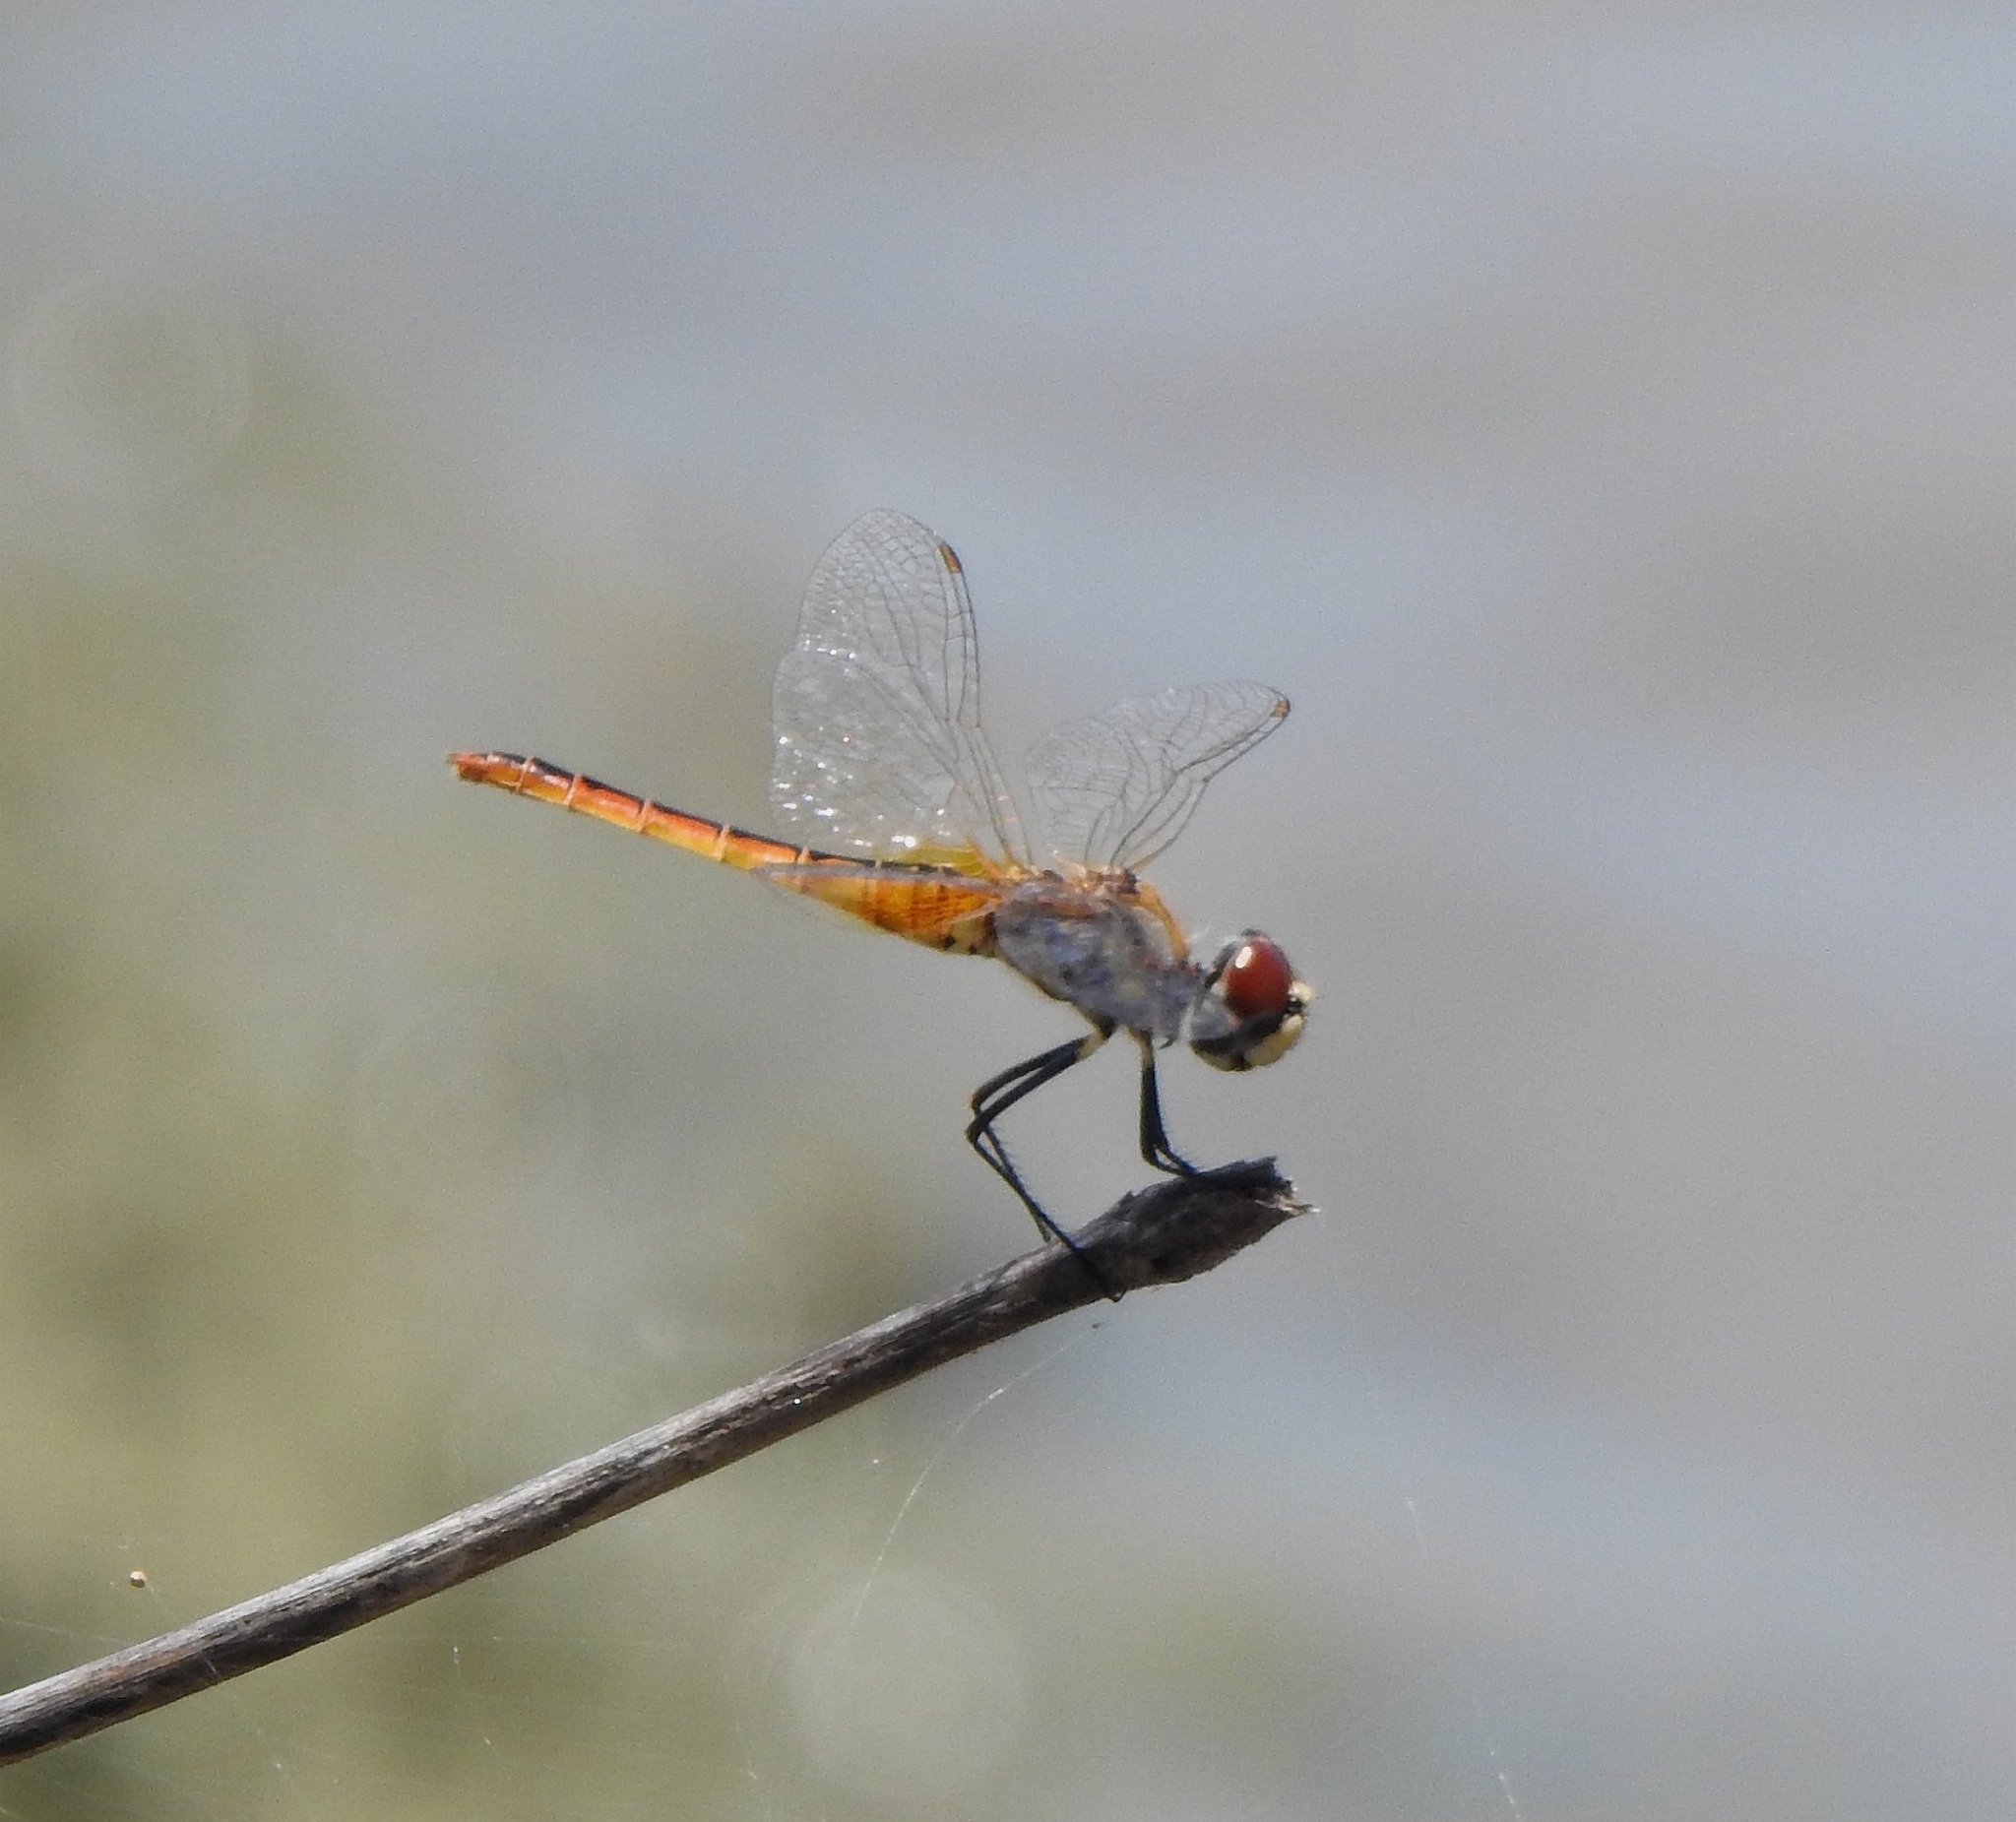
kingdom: Animalia
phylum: Arthropoda
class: Insecta
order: Odonata
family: Libellulidae
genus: Macrodiplax
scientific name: Macrodiplax cora
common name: Coastal glider
